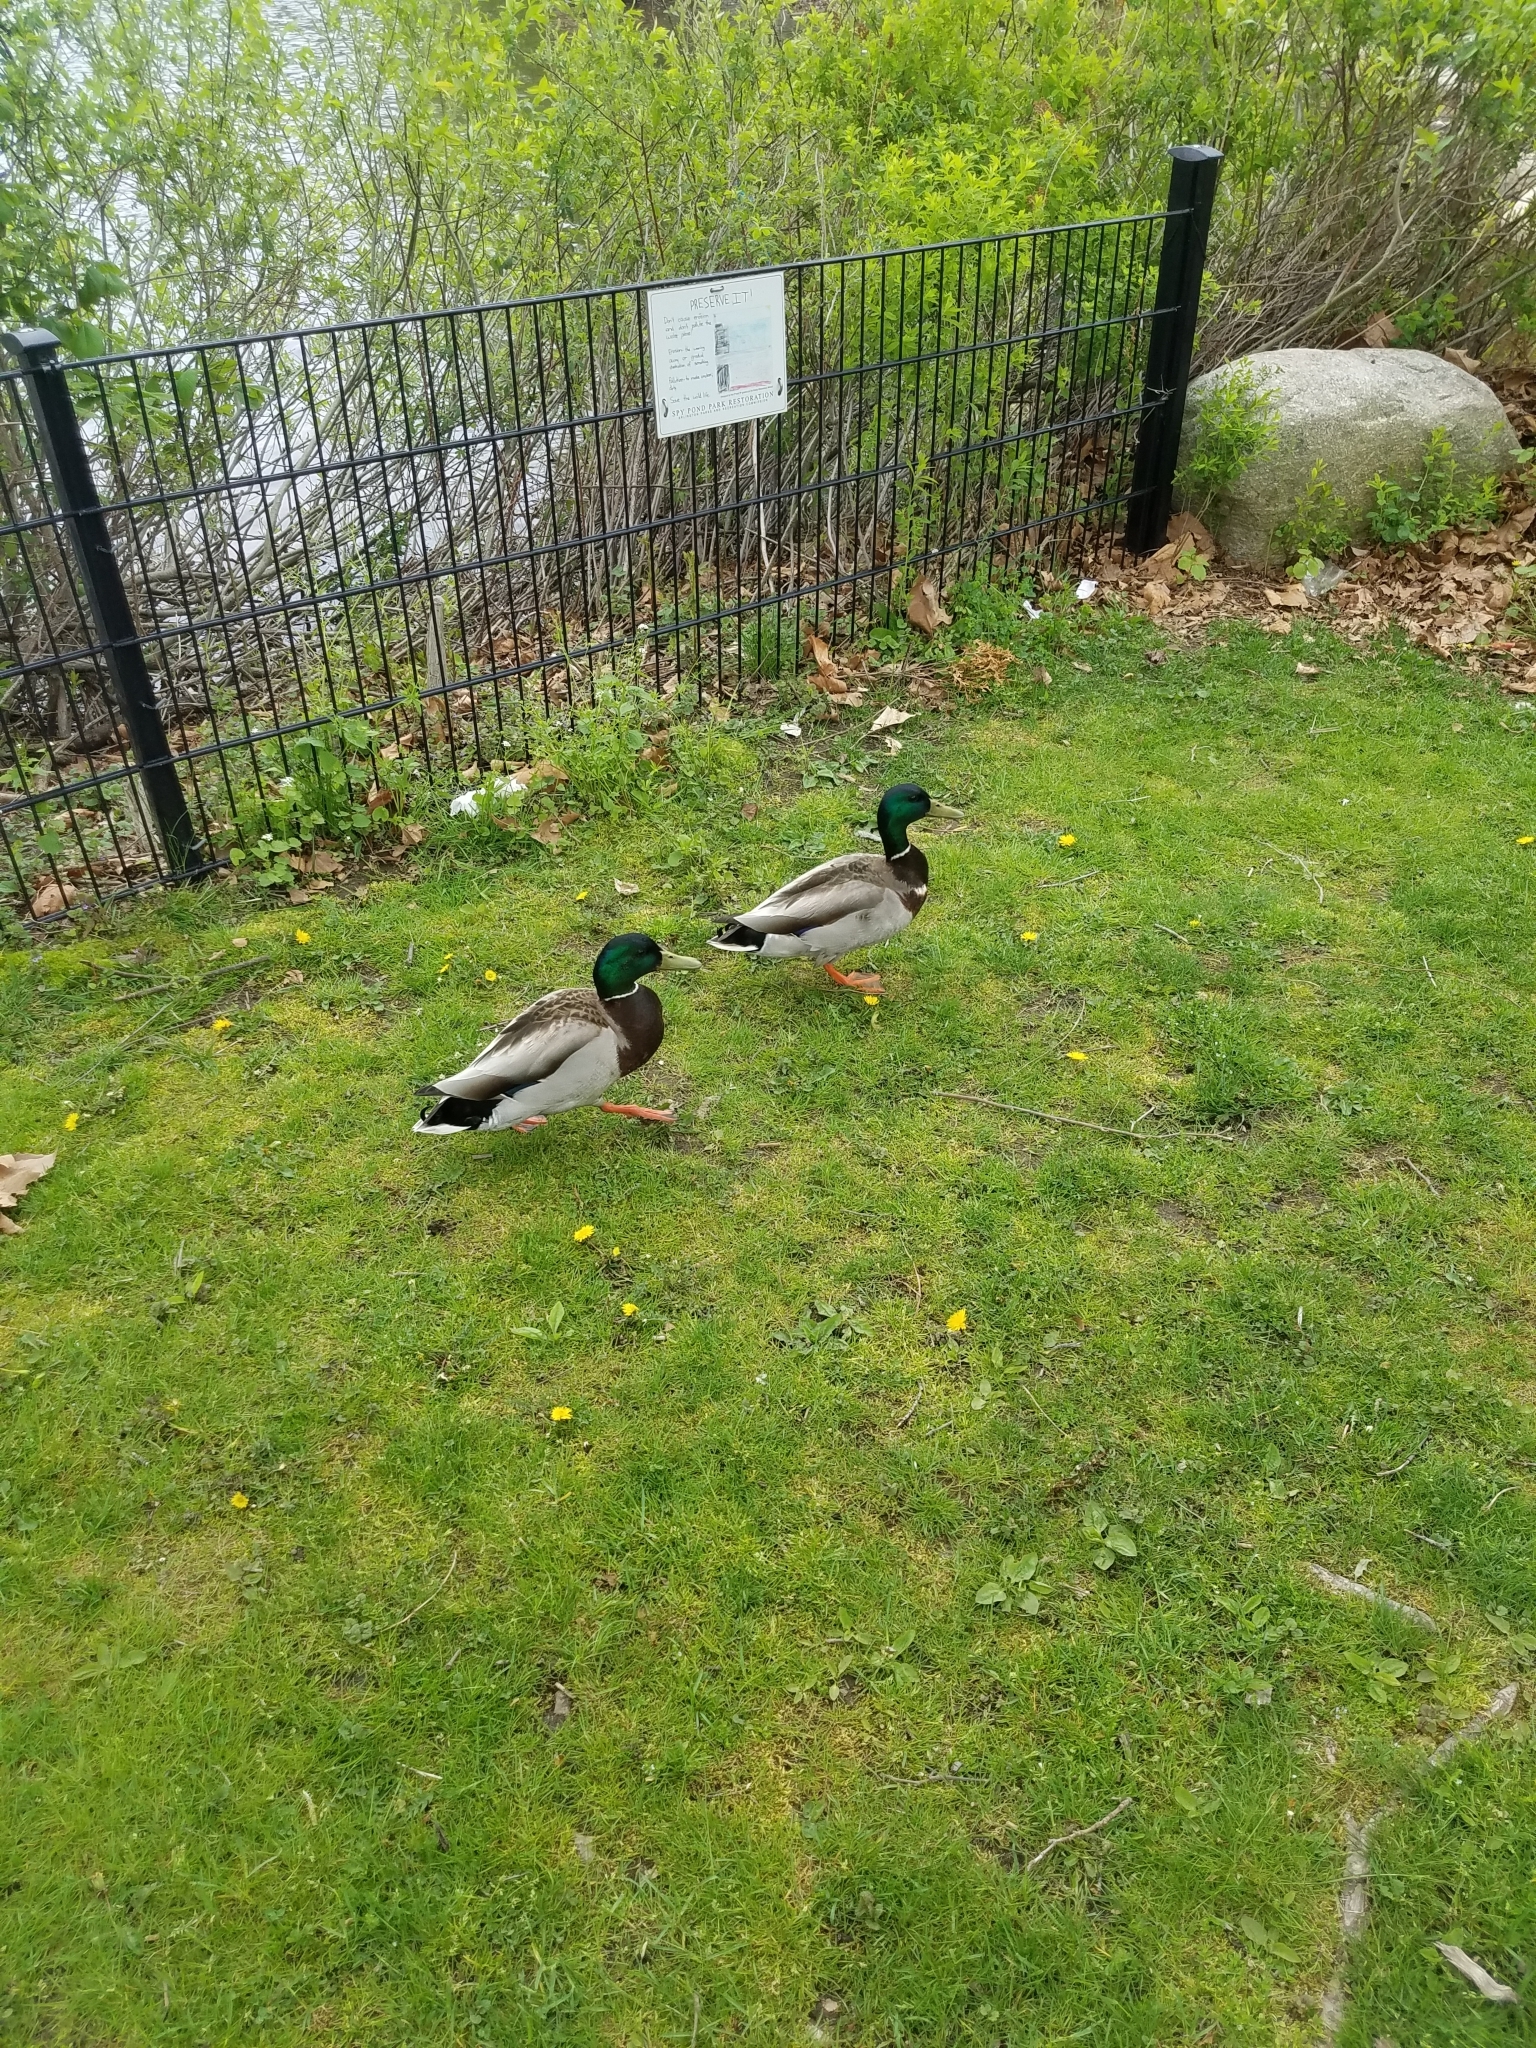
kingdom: Animalia
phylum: Chordata
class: Aves
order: Anseriformes
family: Anatidae
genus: Anas
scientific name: Anas platyrhynchos
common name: Mallard
